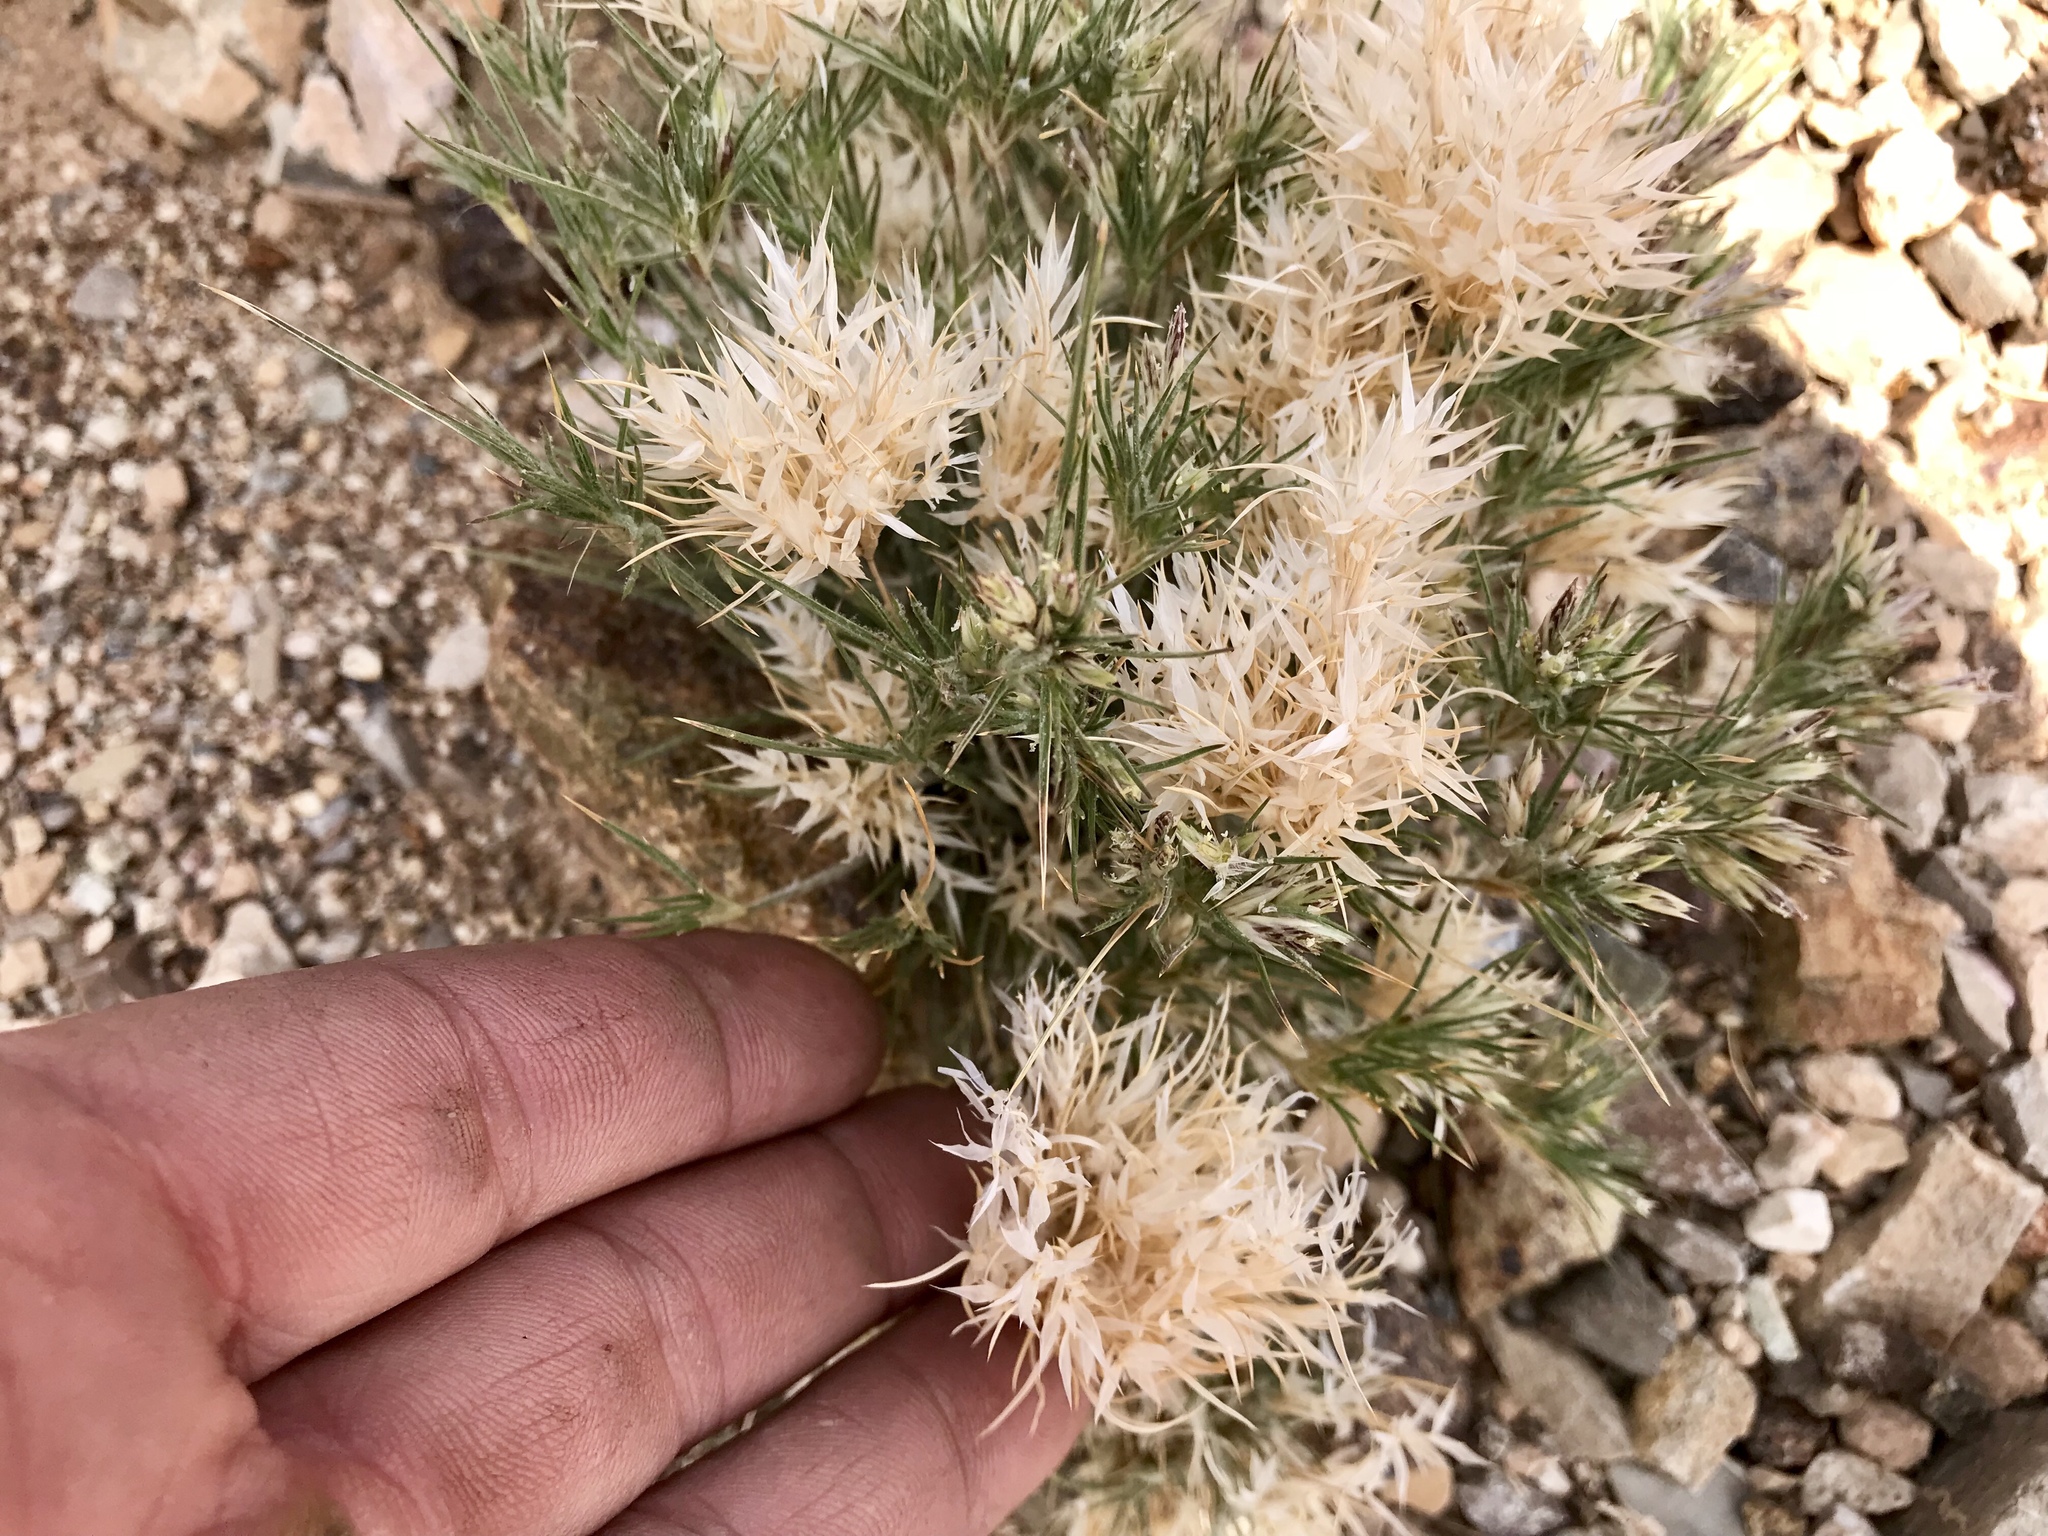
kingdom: Plantae
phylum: Tracheophyta
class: Liliopsida
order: Poales
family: Poaceae
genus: Dasyochloa
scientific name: Dasyochloa pulchella
